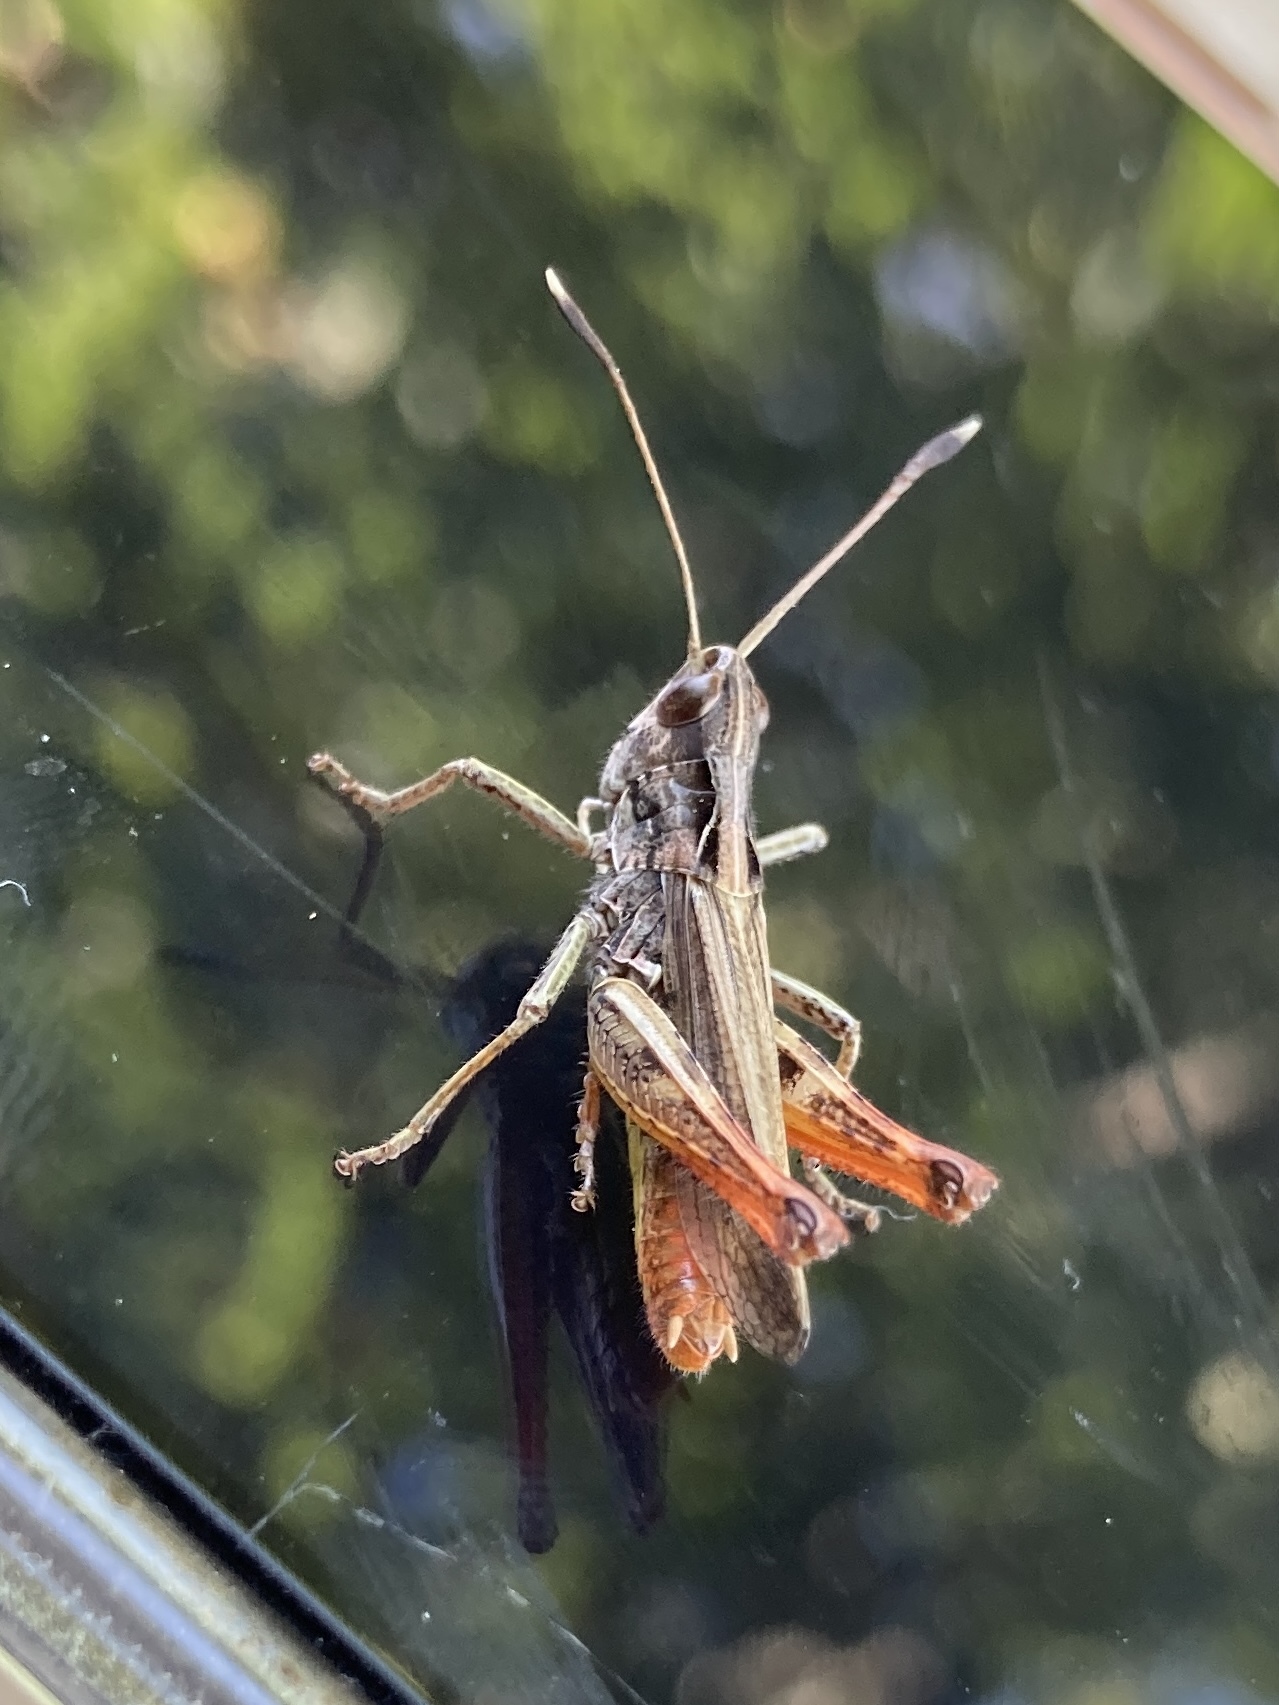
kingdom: Animalia
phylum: Arthropoda
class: Insecta
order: Orthoptera
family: Acrididae
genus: Gomphocerippus
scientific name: Gomphocerippus rufus
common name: Rufous grasshopper
